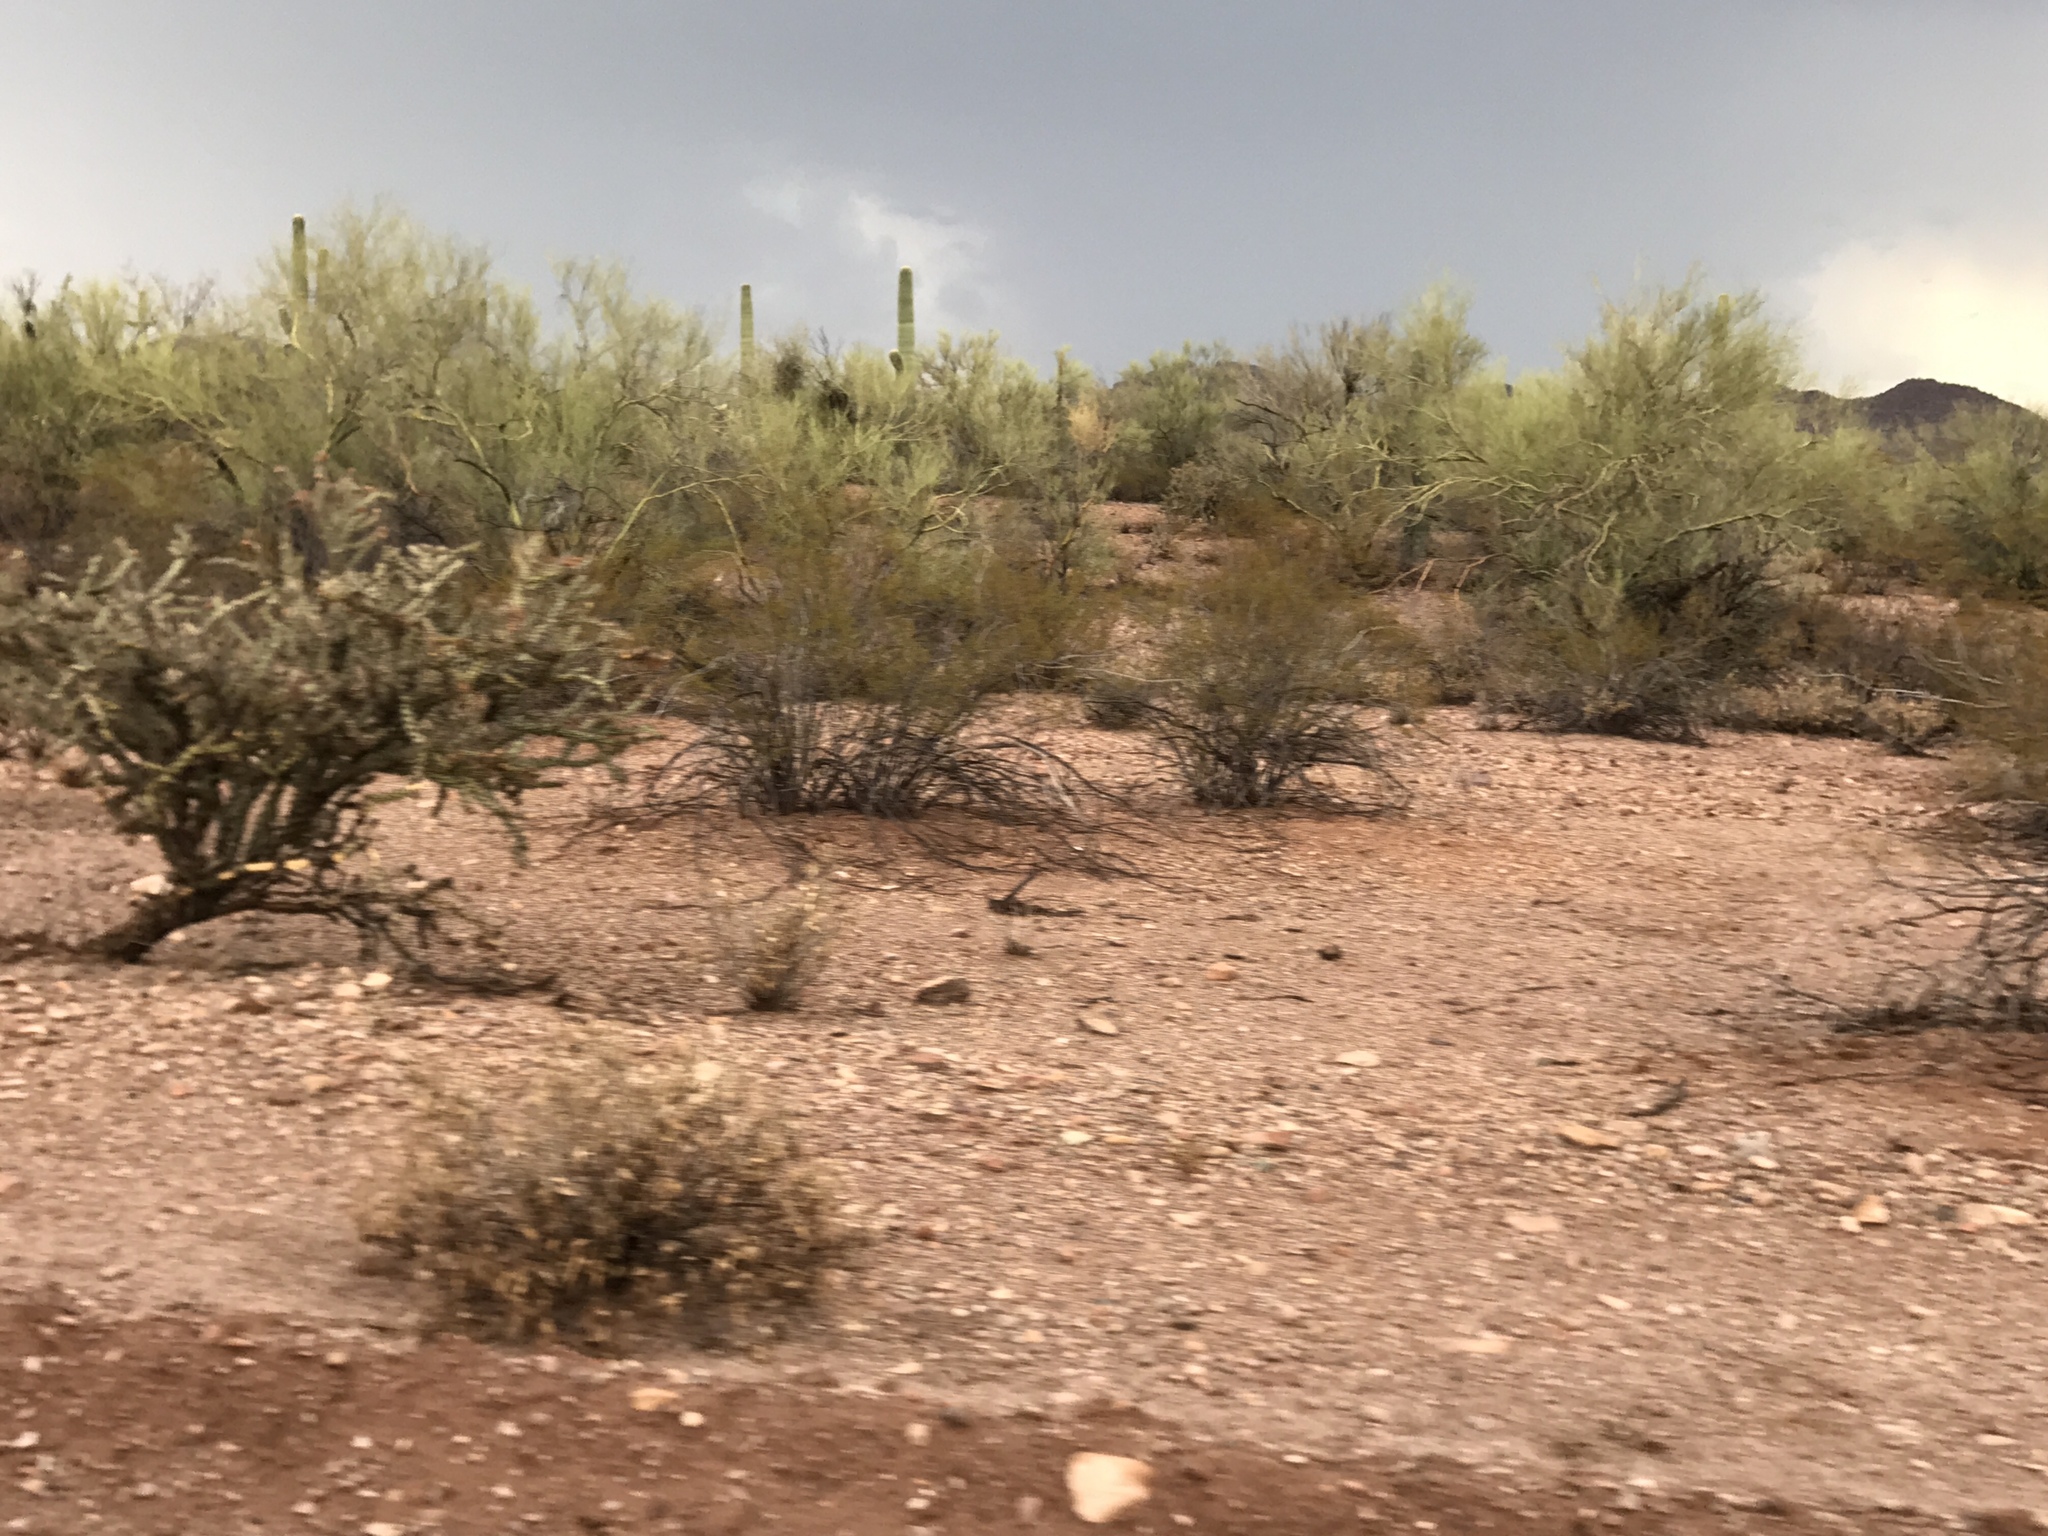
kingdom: Plantae
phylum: Tracheophyta
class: Magnoliopsida
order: Zygophyllales
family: Zygophyllaceae
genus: Larrea
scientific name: Larrea tridentata
